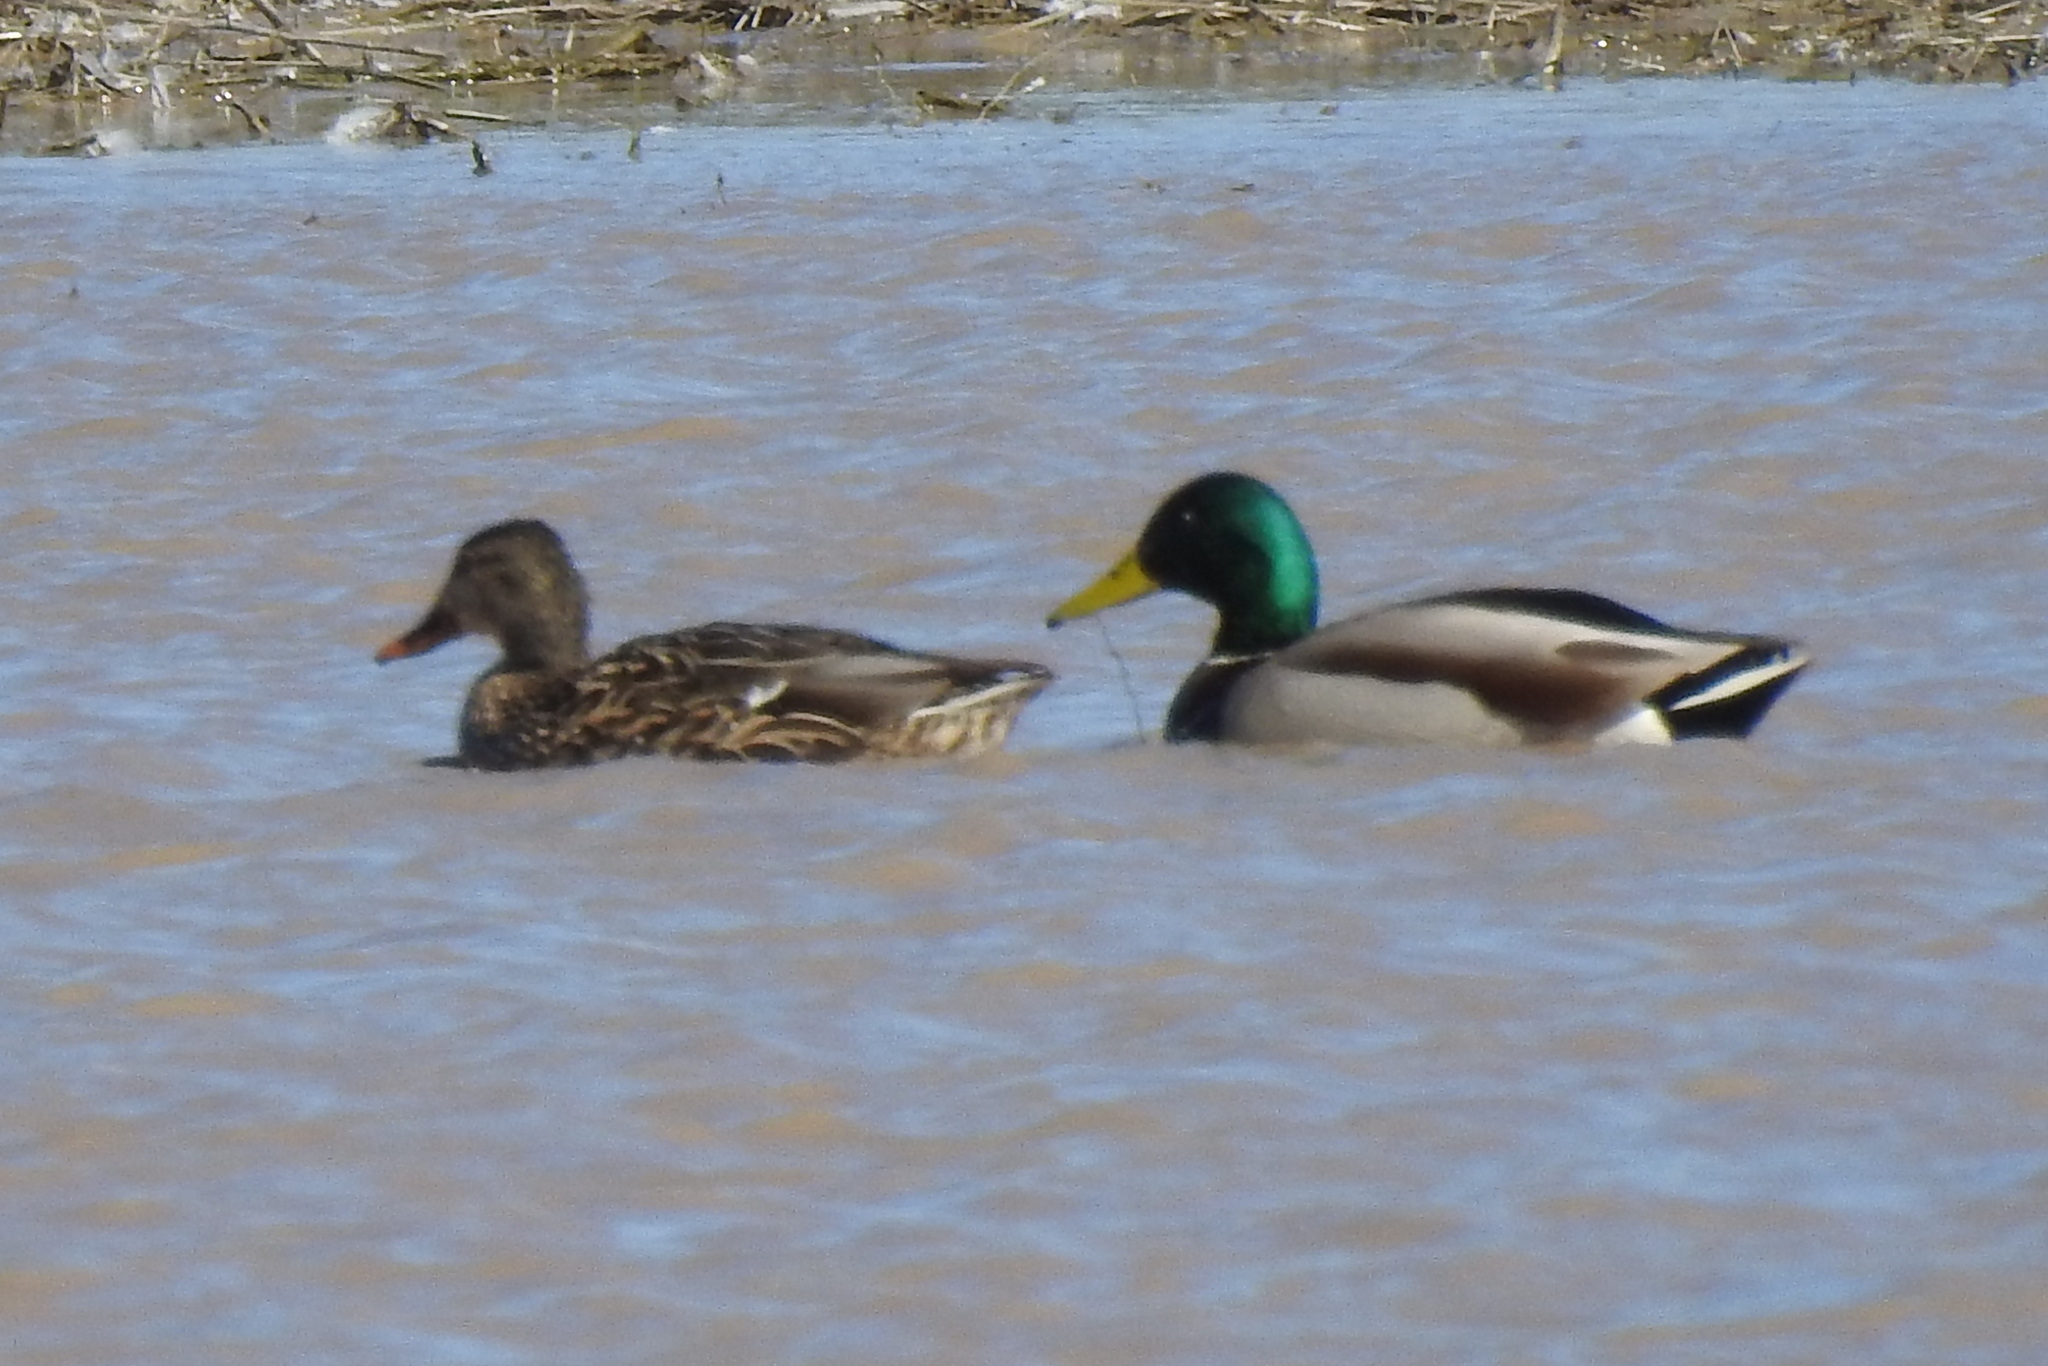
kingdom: Animalia
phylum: Chordata
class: Aves
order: Anseriformes
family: Anatidae
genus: Anas
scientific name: Anas platyrhynchos
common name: Mallard
